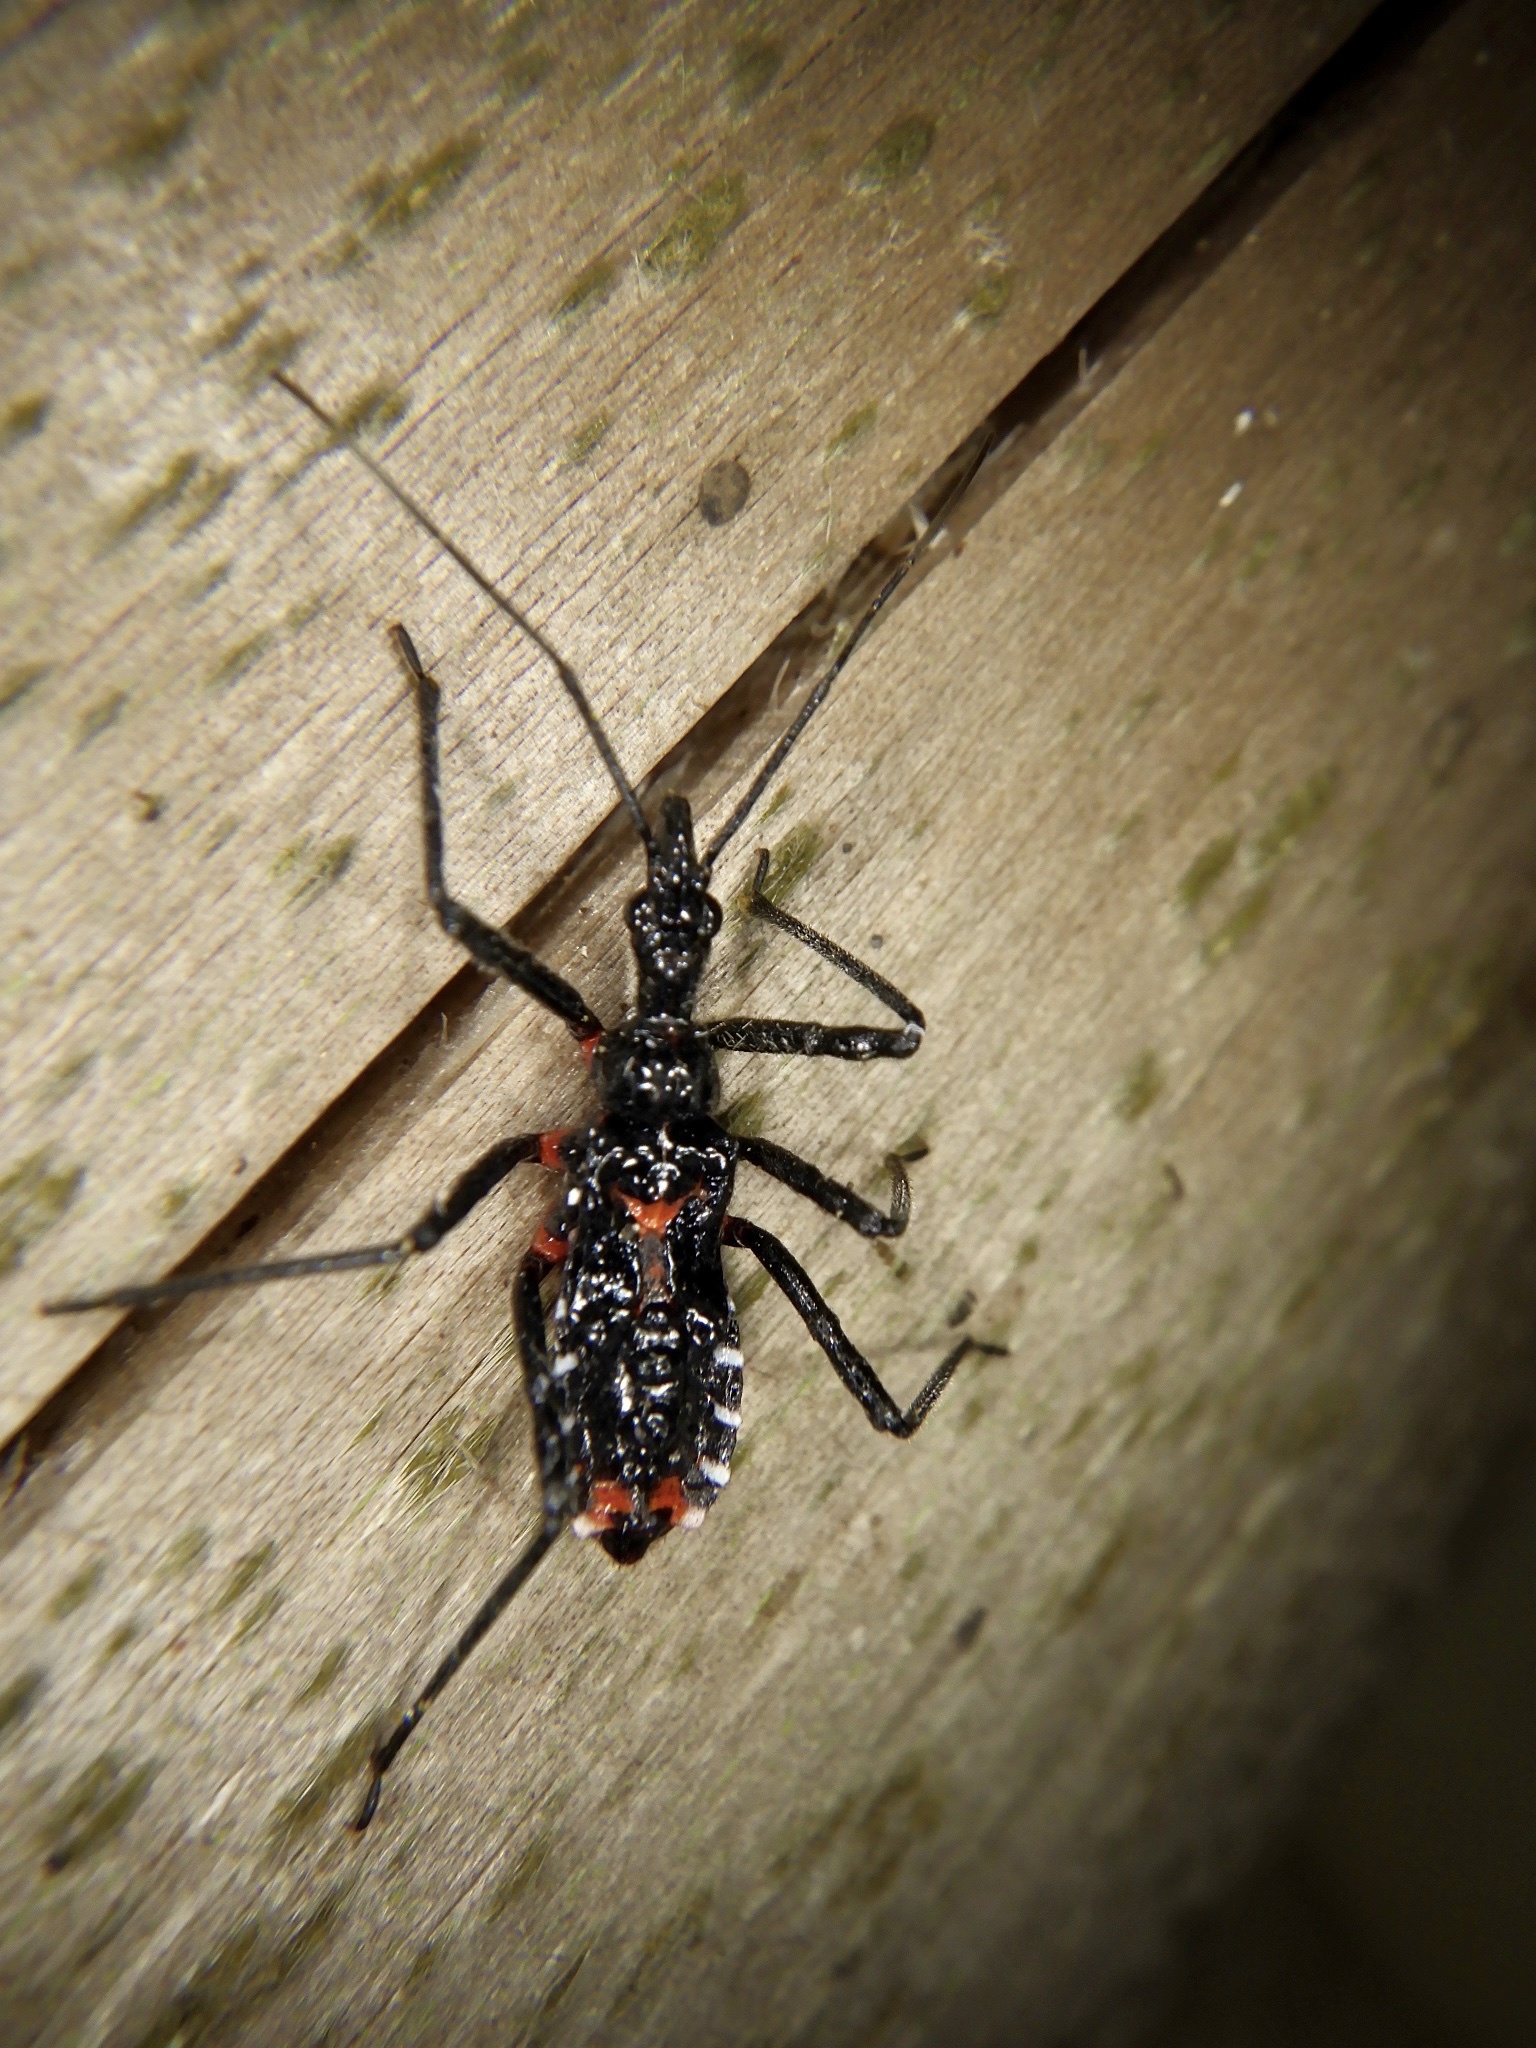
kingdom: Animalia
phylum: Arthropoda
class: Insecta
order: Hemiptera
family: Reduviidae
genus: Agriosphodrus
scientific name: Agriosphodrus dohrni
